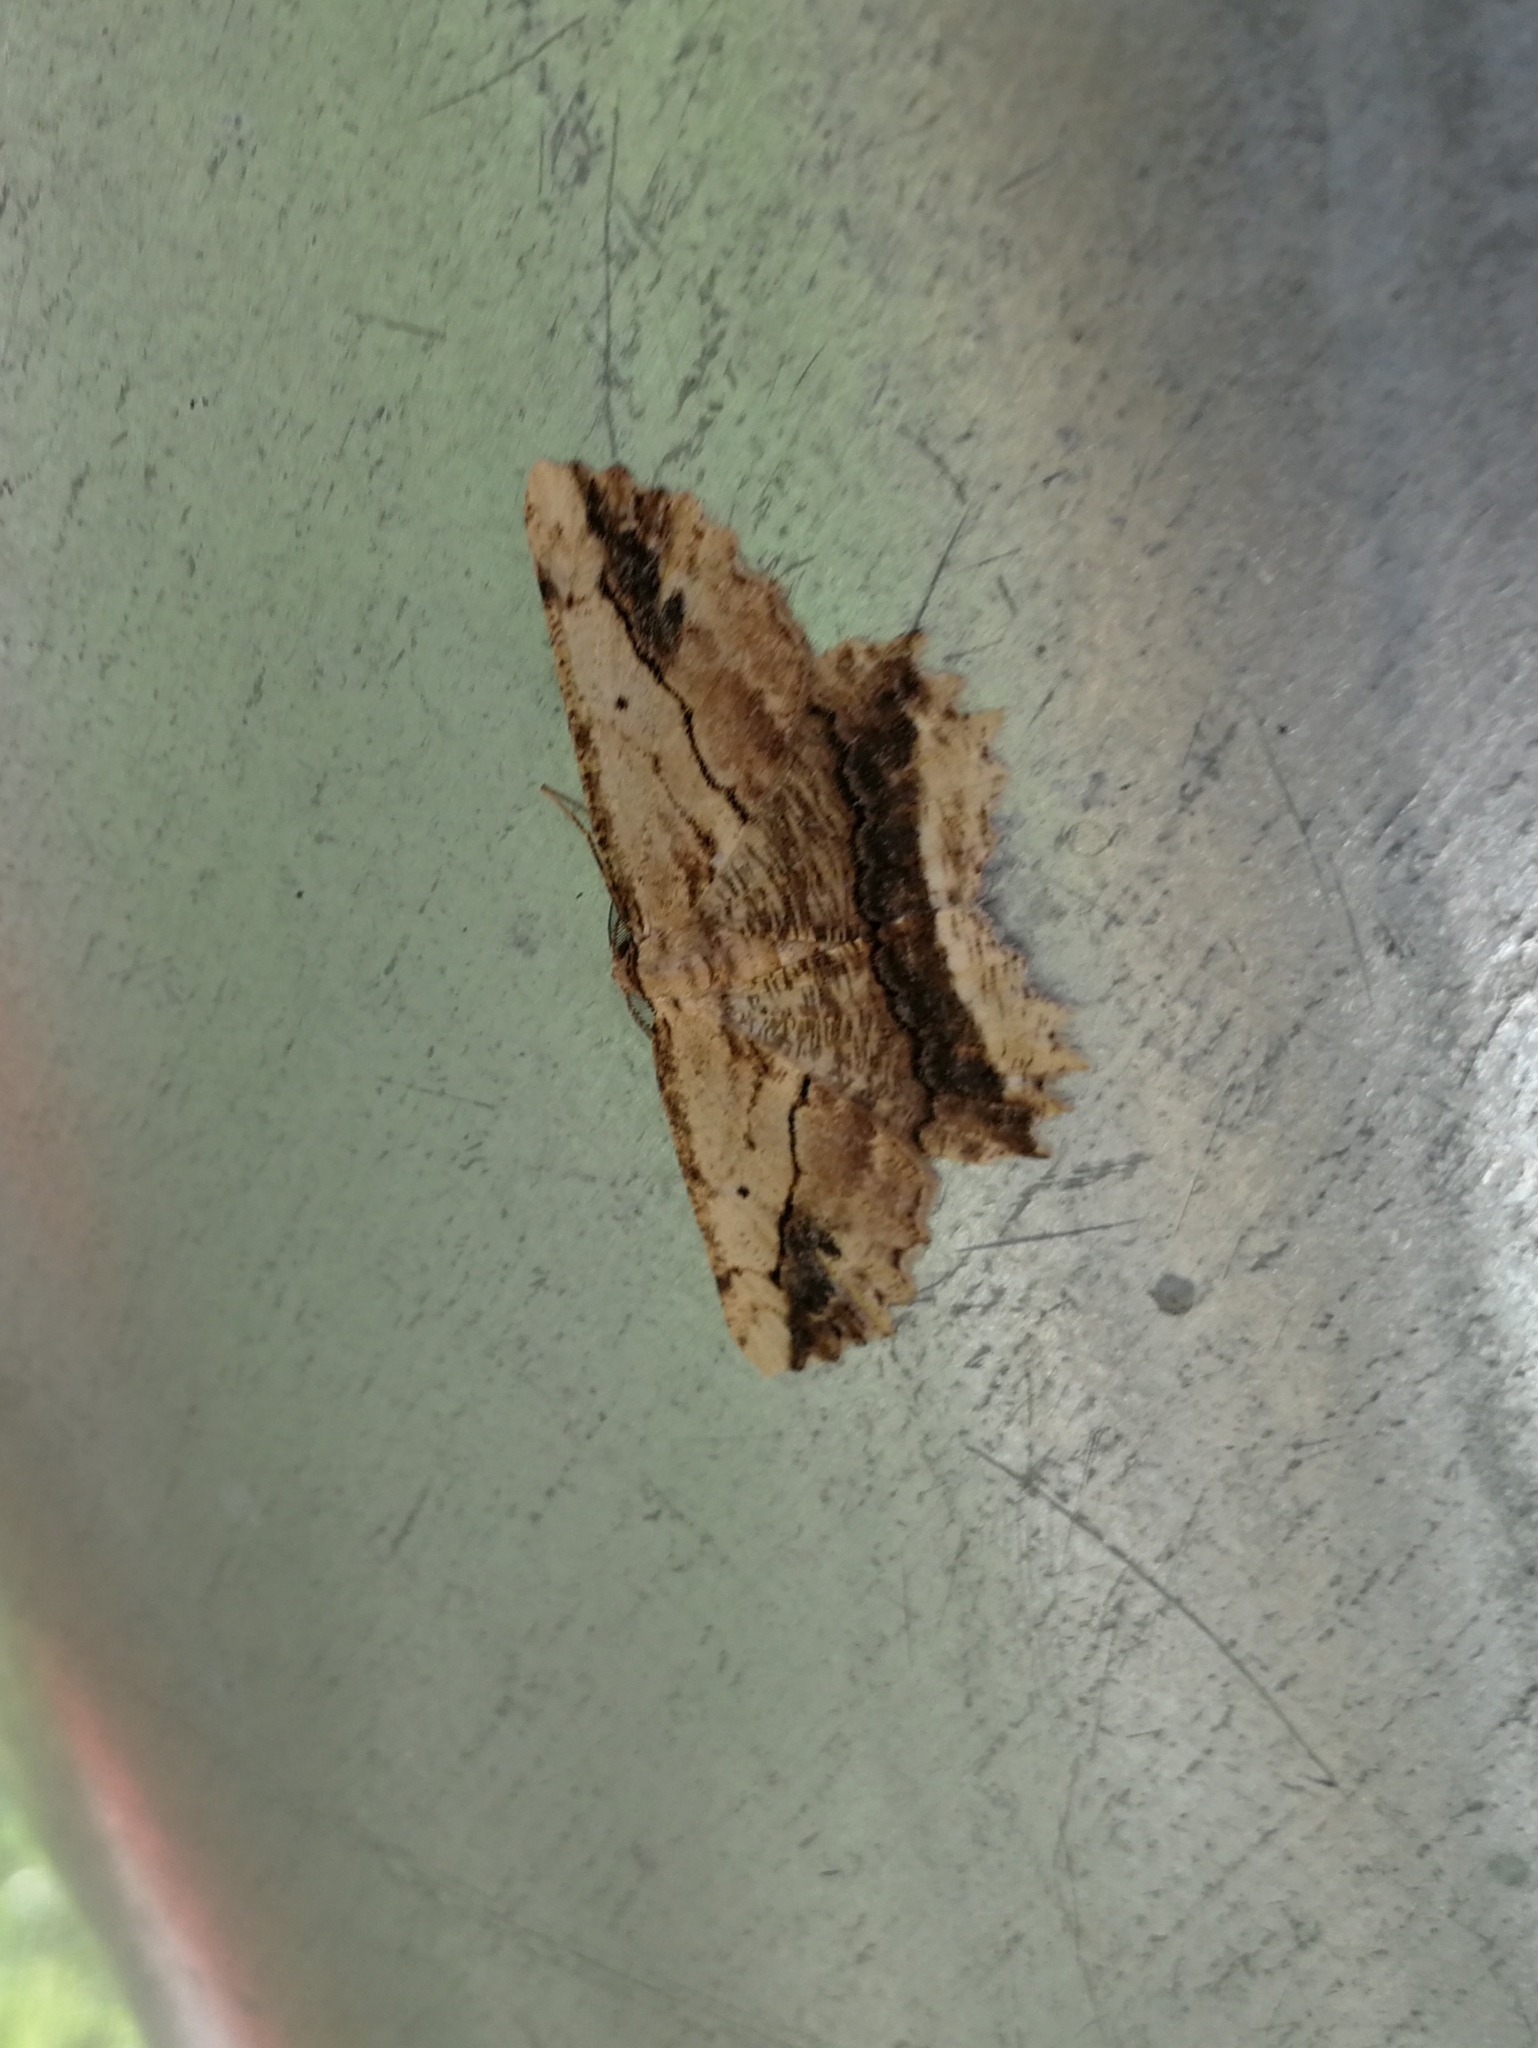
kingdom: Animalia
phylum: Arthropoda
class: Insecta
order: Lepidoptera
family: Geometridae
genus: Menophra
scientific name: Menophra abruptaria
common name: Waved umber
